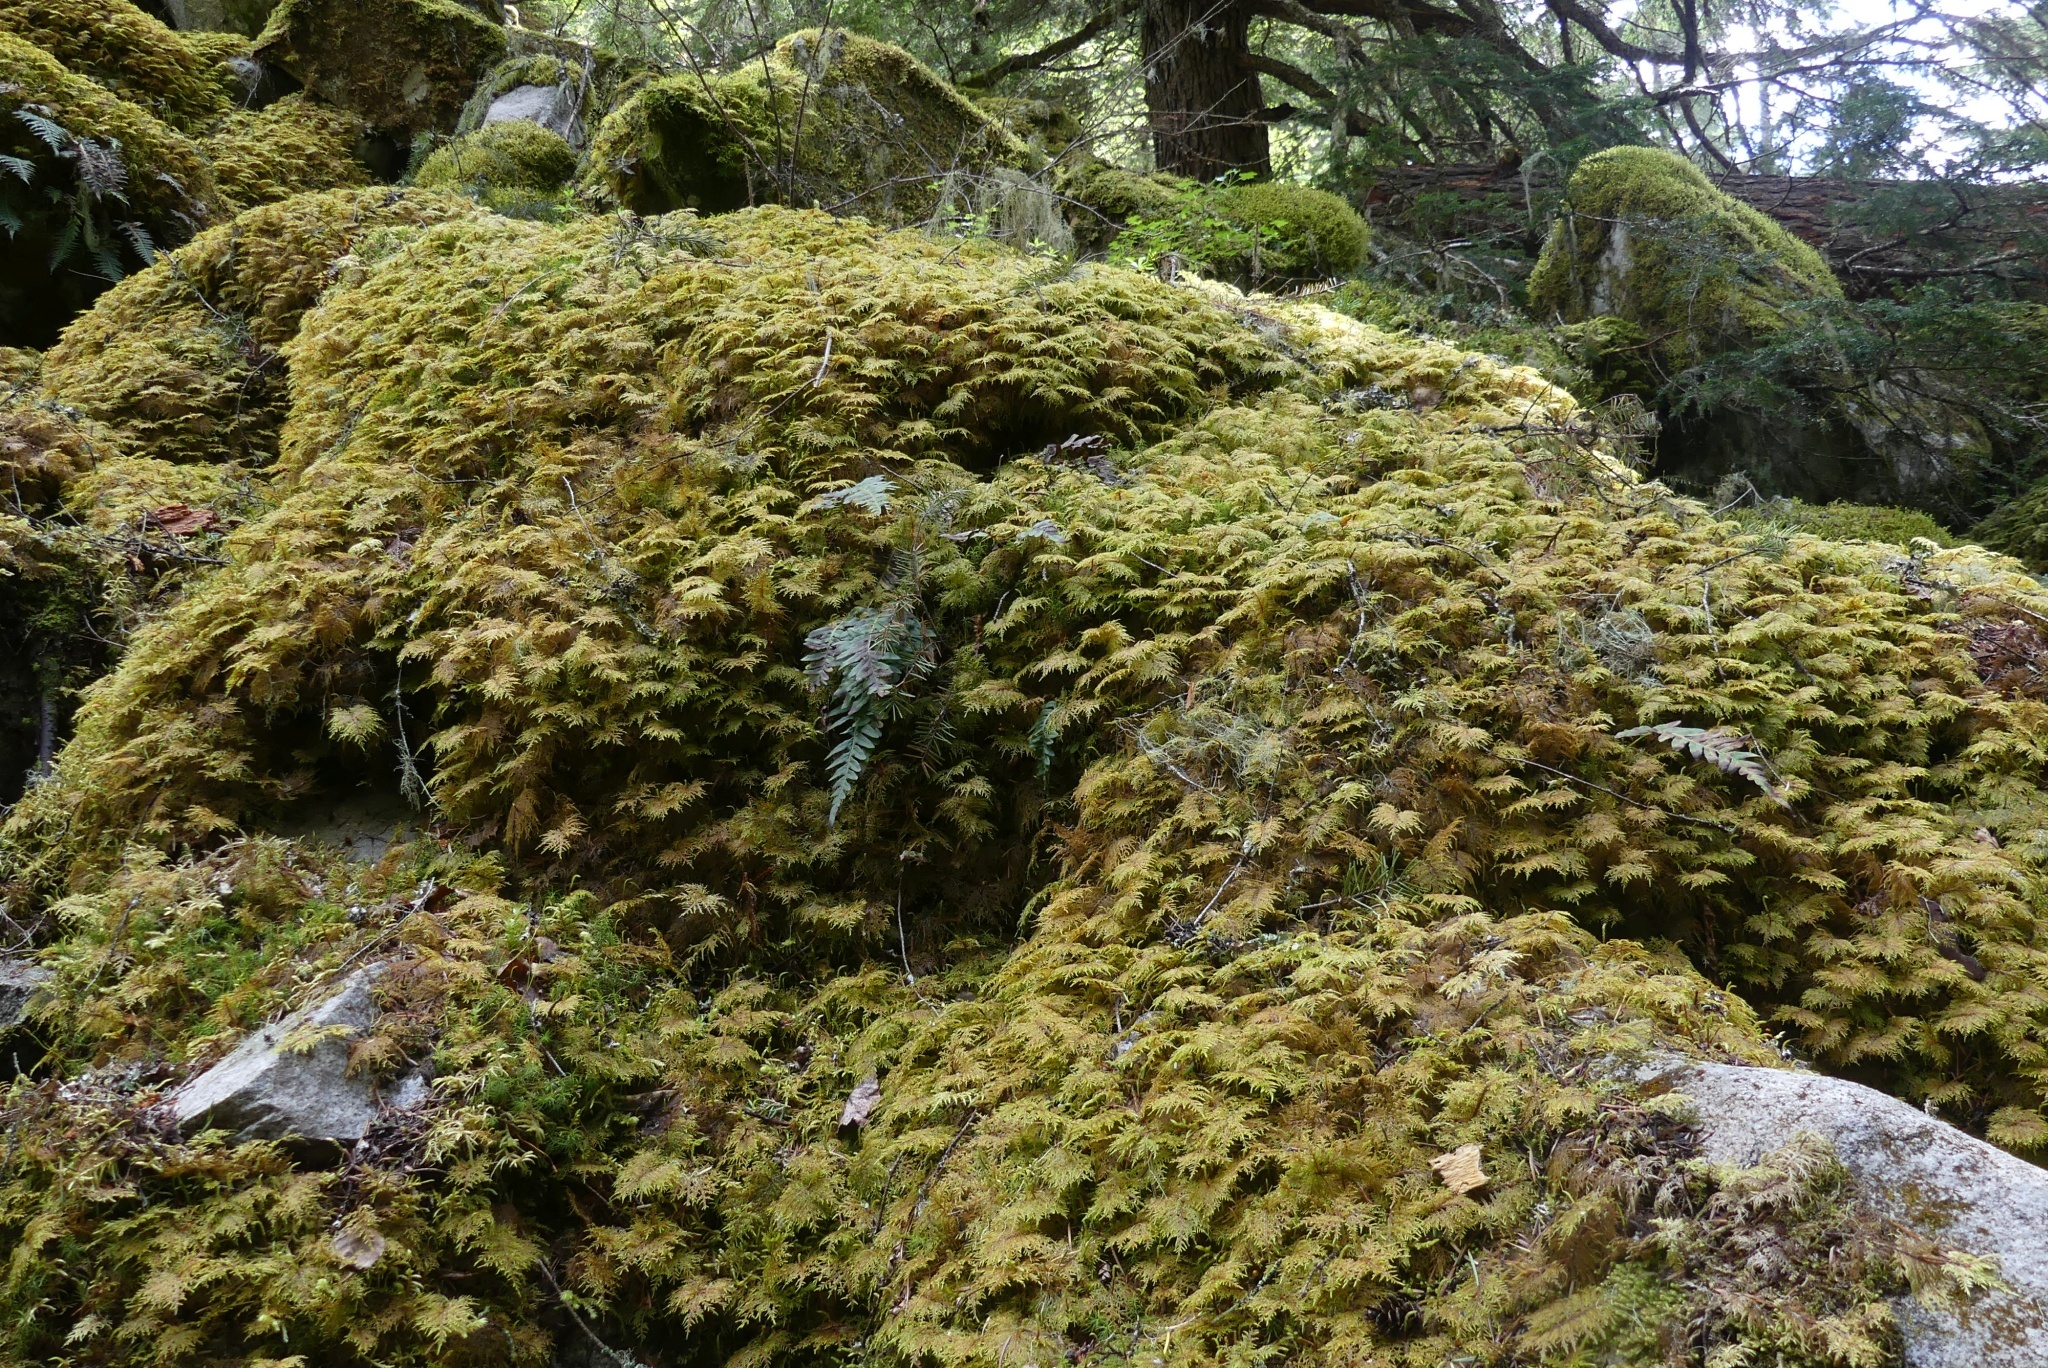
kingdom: Plantae
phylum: Bryophyta
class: Bryopsida
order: Hypnales
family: Hylocomiaceae
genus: Hylocomium
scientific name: Hylocomium splendens
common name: Stairstep moss
